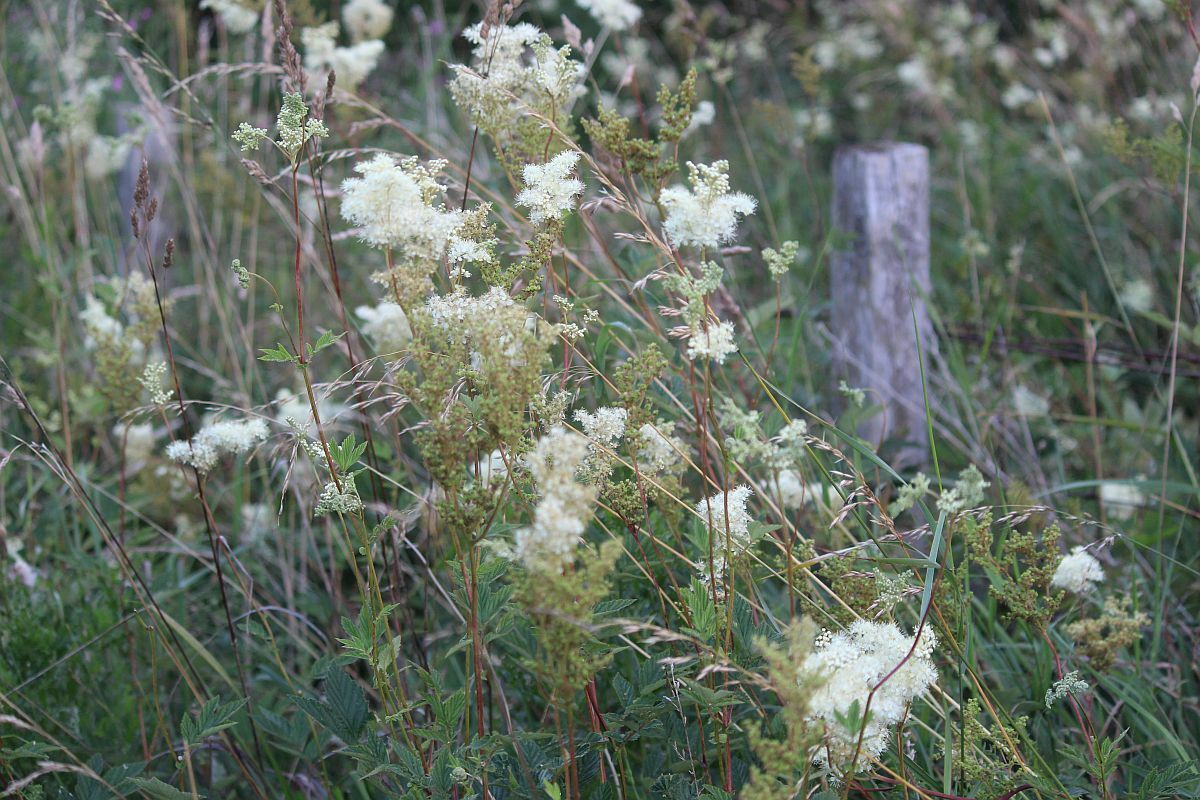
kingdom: Plantae
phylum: Tracheophyta
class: Magnoliopsida
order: Rosales
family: Rosaceae
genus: Filipendula
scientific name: Filipendula ulmaria
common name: Meadowsweet
